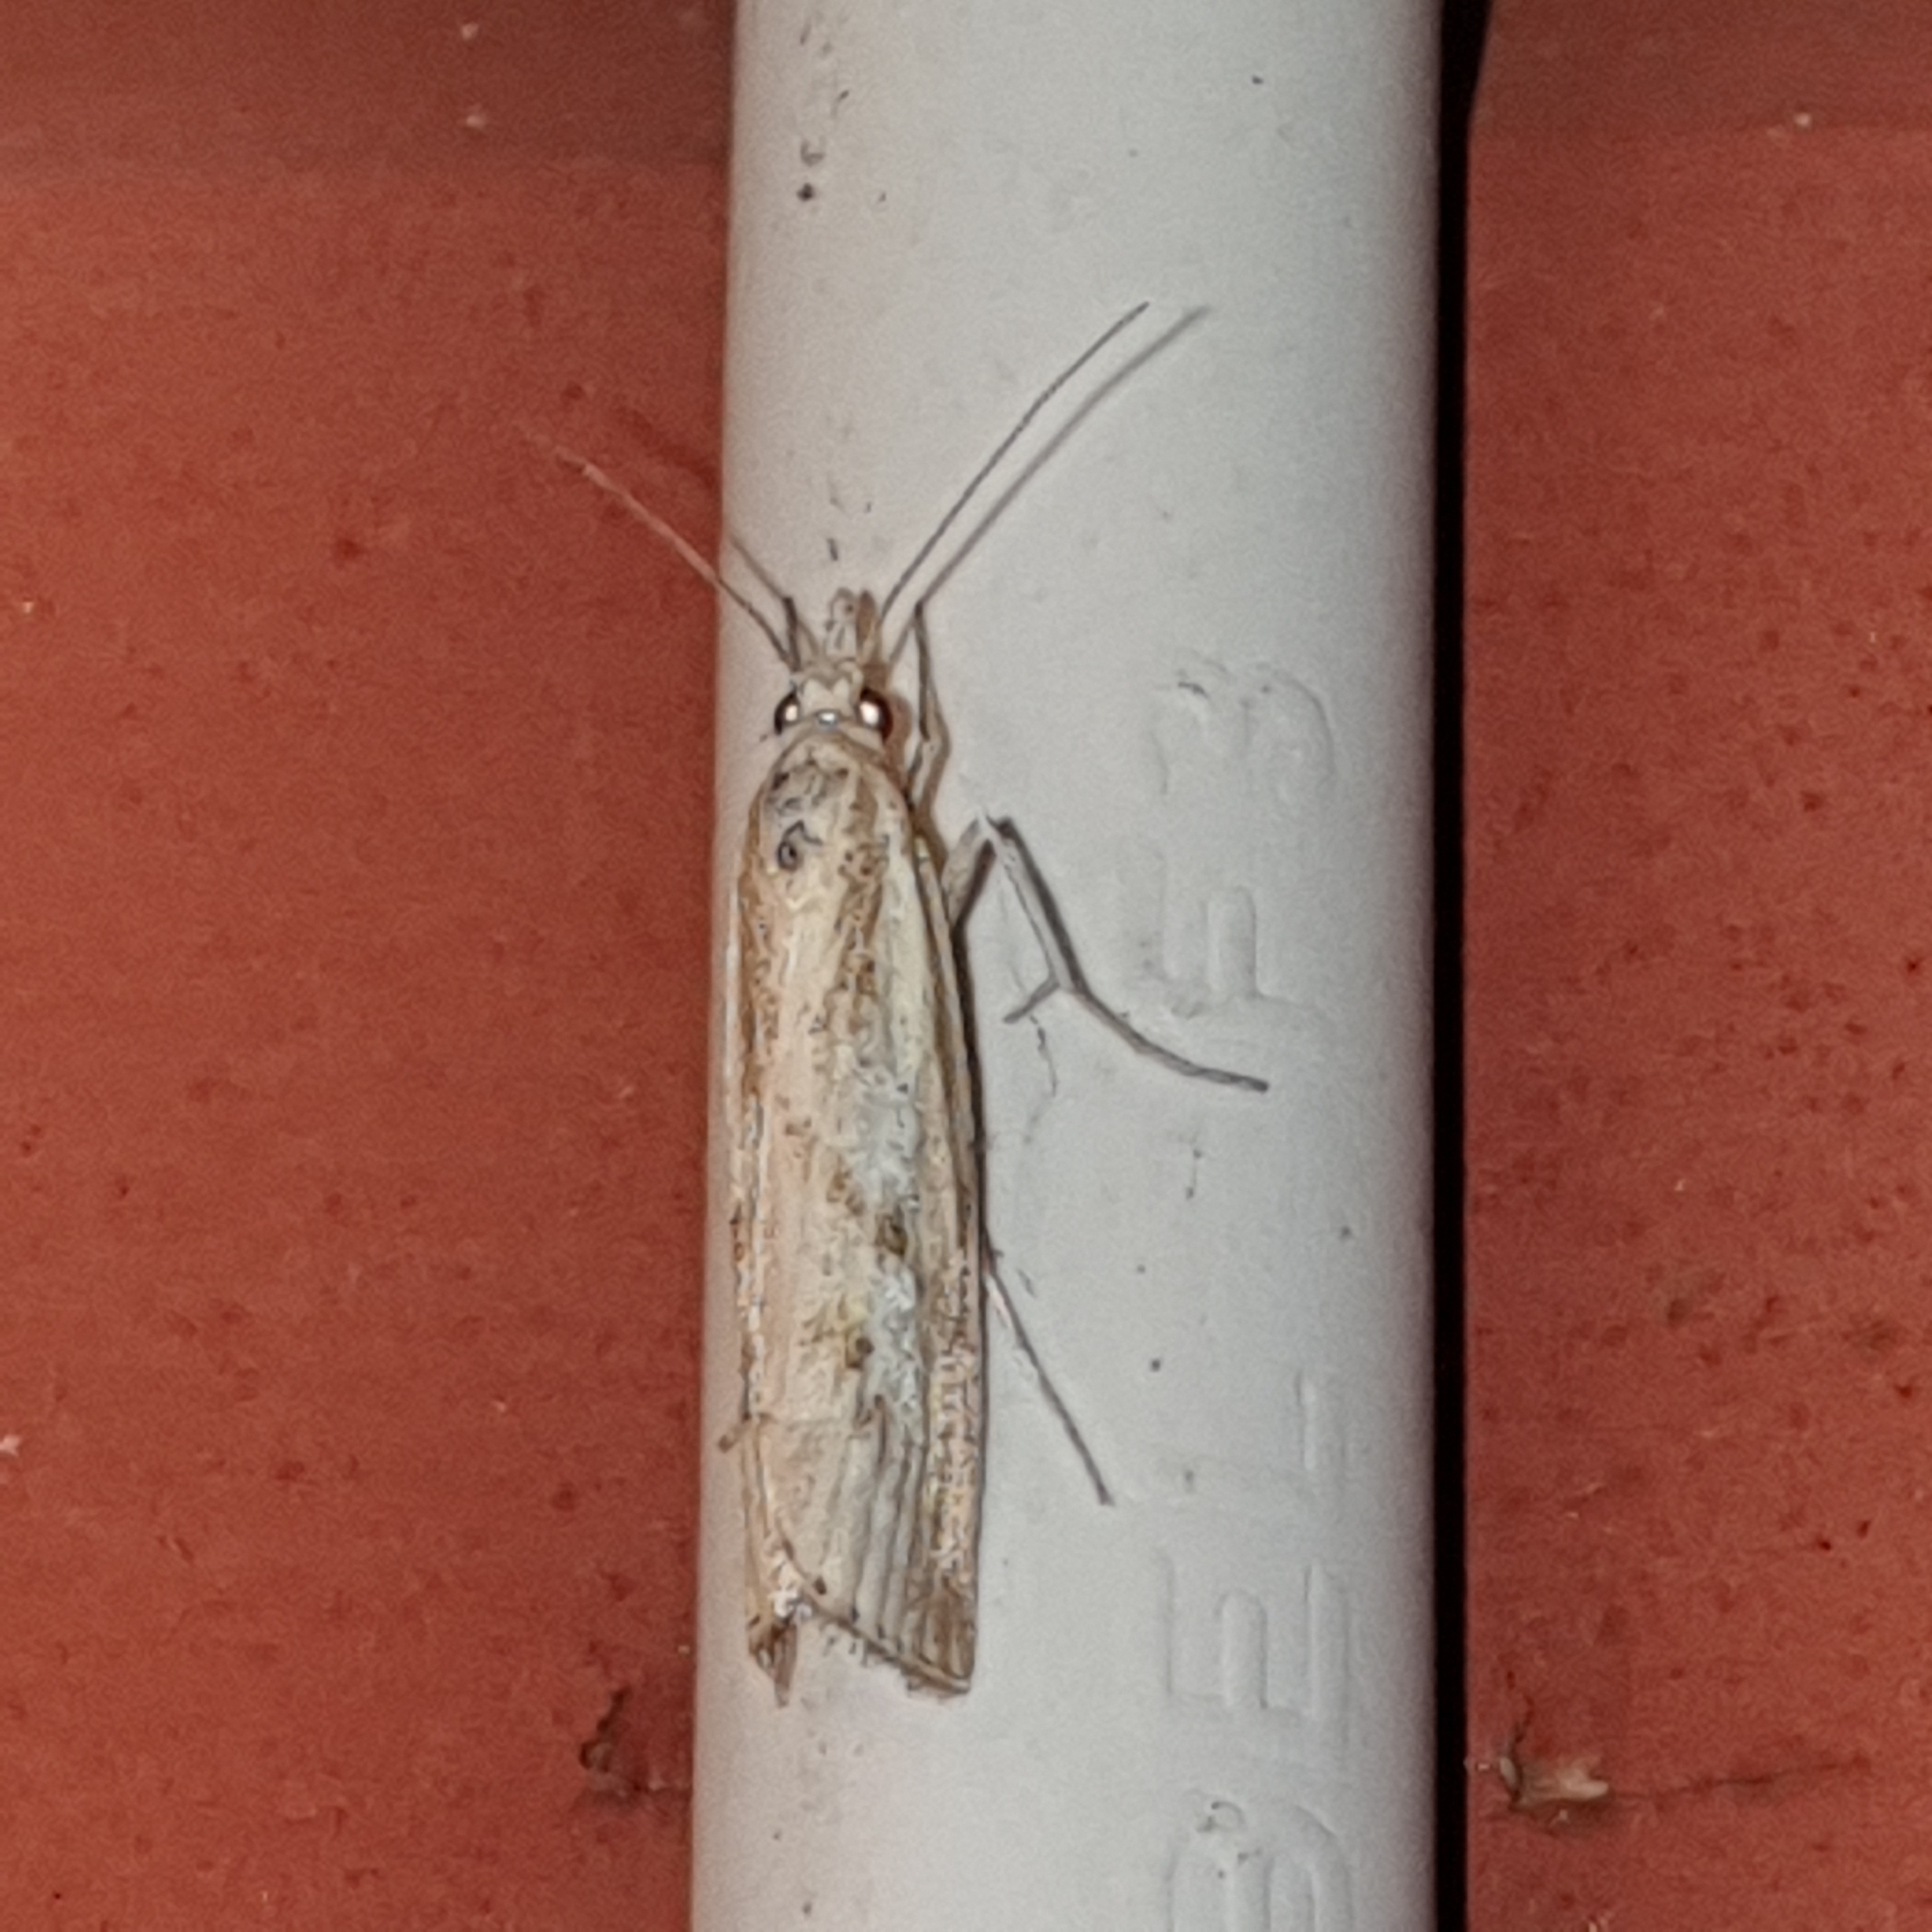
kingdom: Animalia
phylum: Arthropoda
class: Insecta
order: Lepidoptera
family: Crambidae
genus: Agriphila
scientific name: Agriphila inquinatella
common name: Barred grass-veneer
